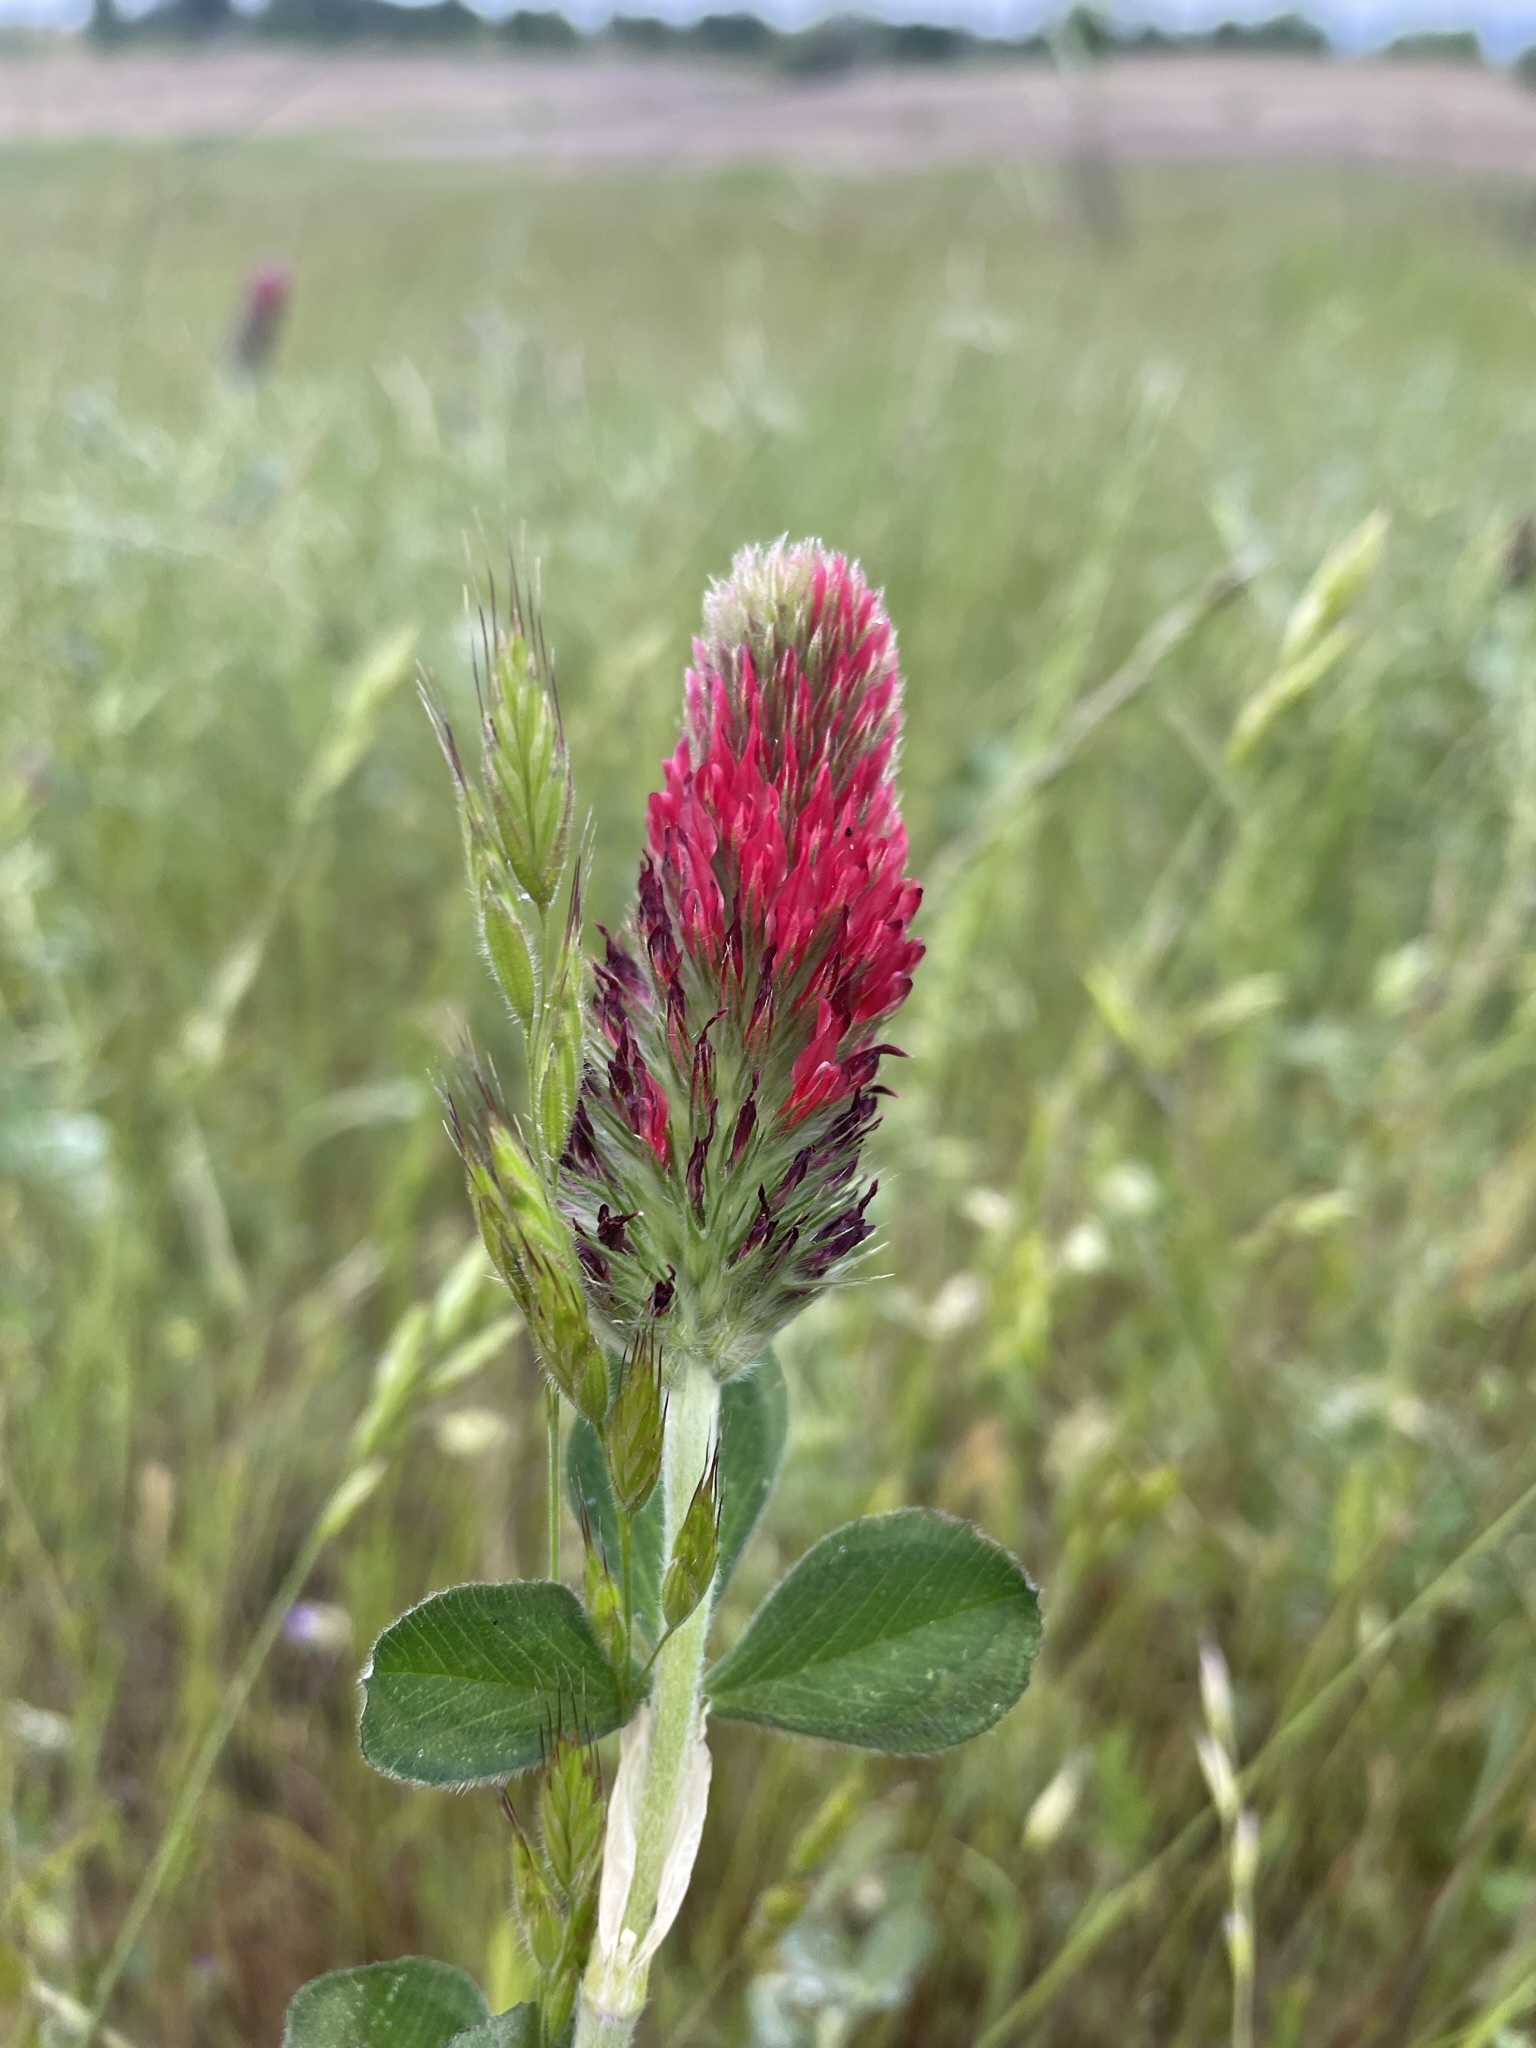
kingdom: Plantae
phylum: Tracheophyta
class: Magnoliopsida
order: Fabales
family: Fabaceae
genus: Trifolium
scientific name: Trifolium incarnatum
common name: Crimson clover
